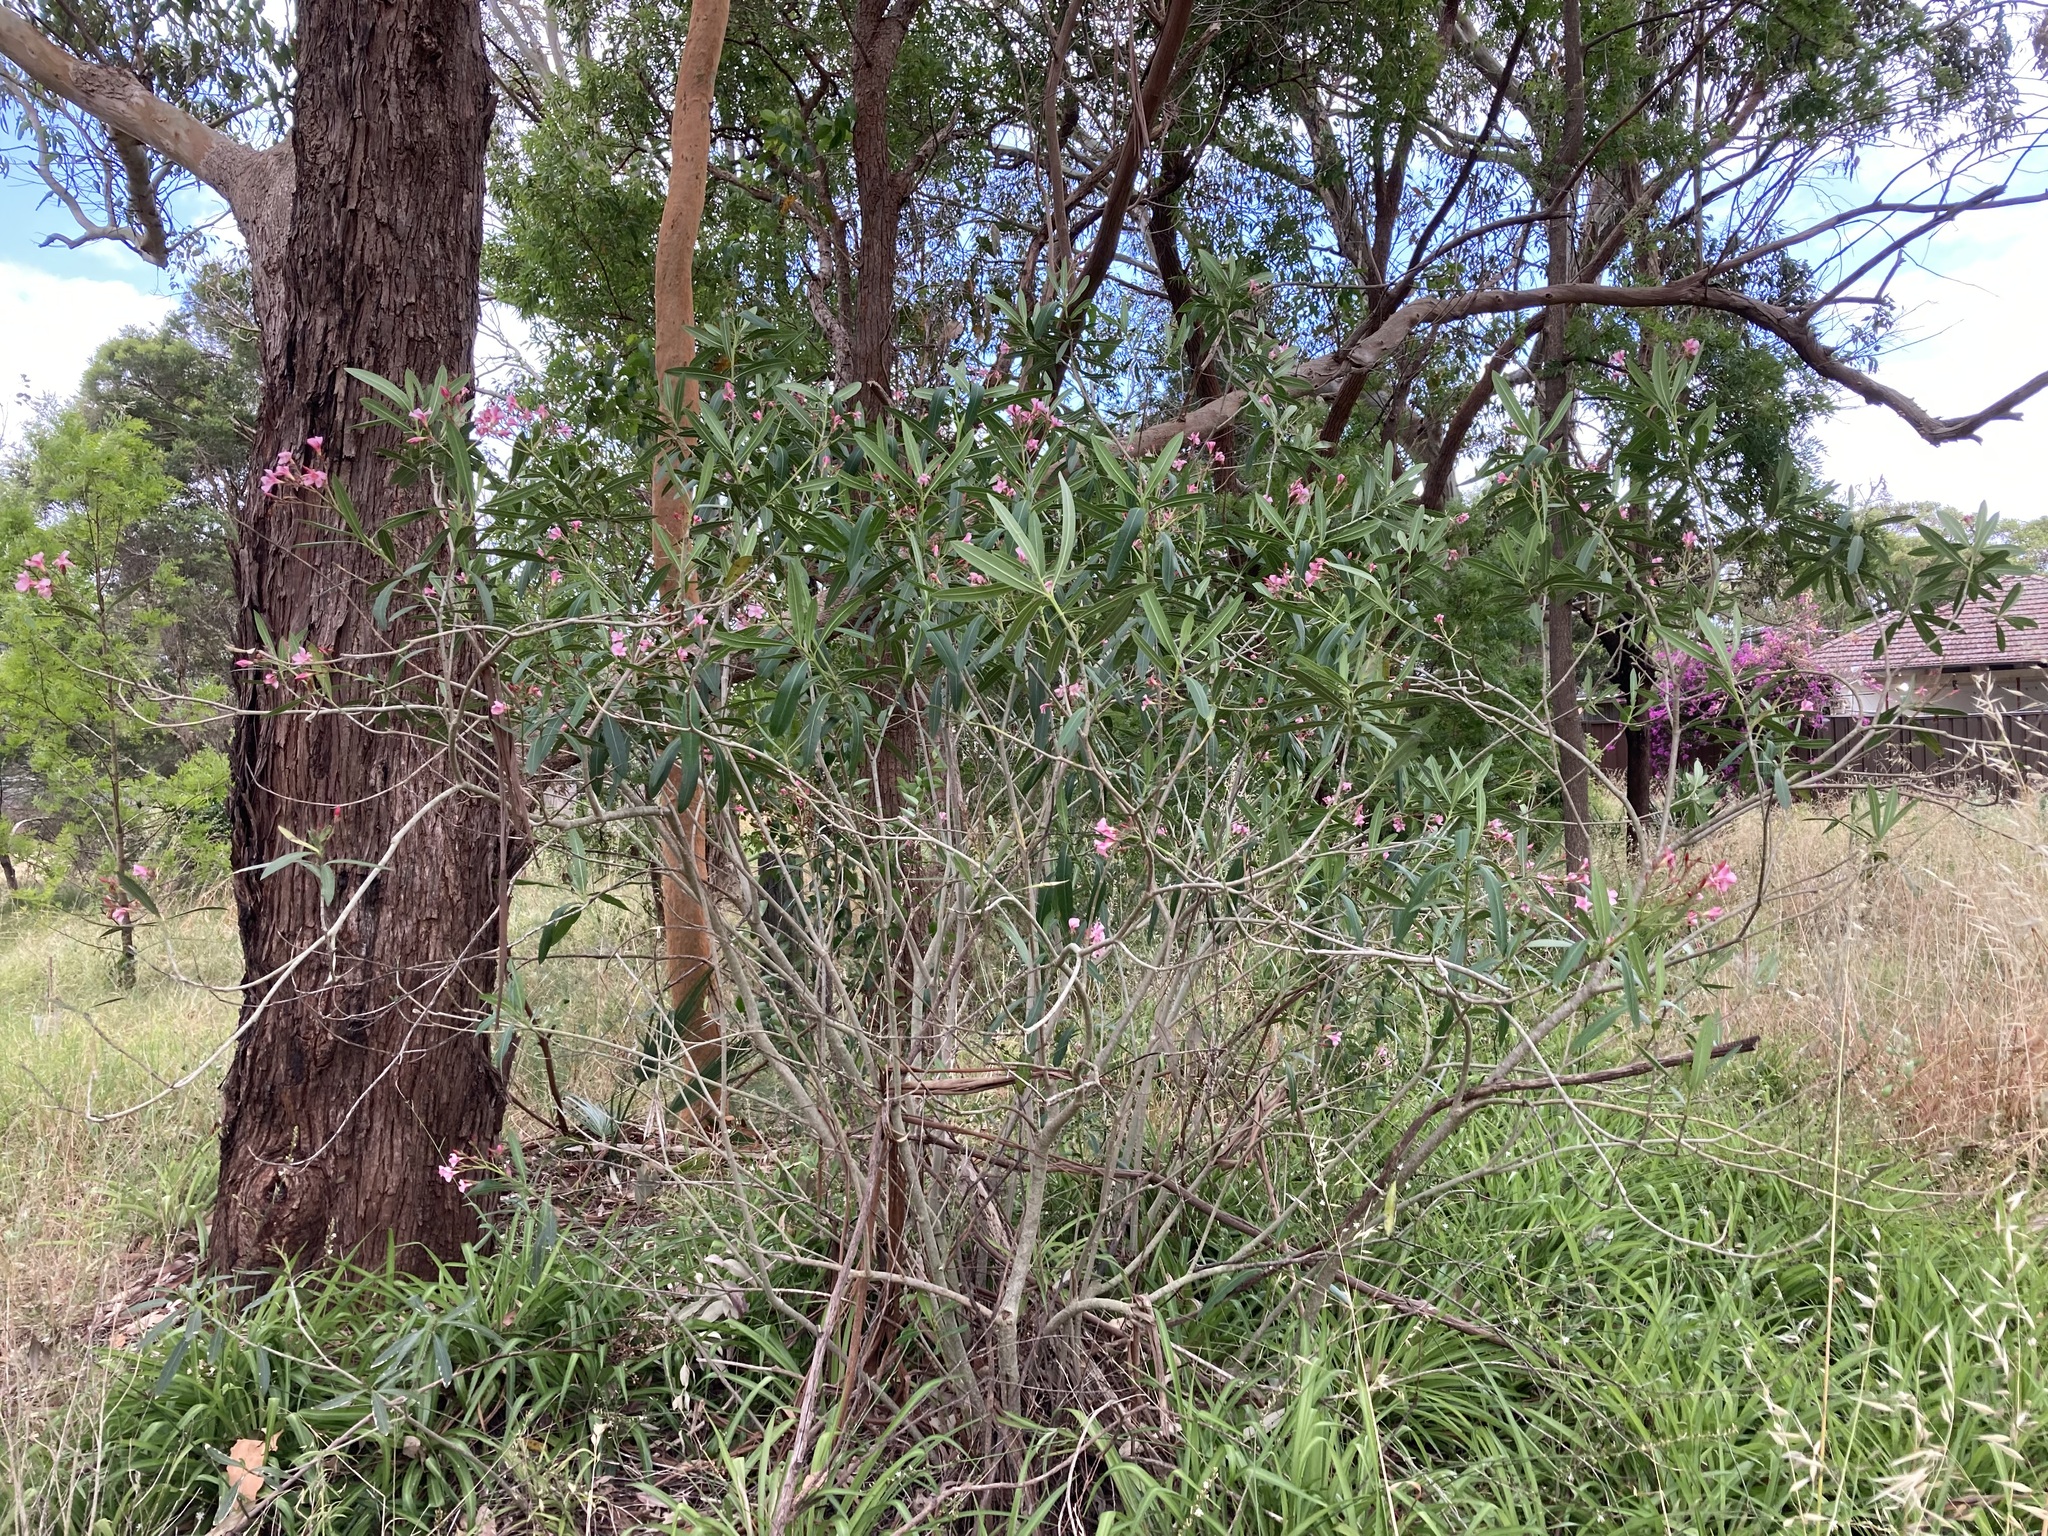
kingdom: Plantae
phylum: Tracheophyta
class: Magnoliopsida
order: Gentianales
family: Apocynaceae
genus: Nerium
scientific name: Nerium oleander
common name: Oleander
